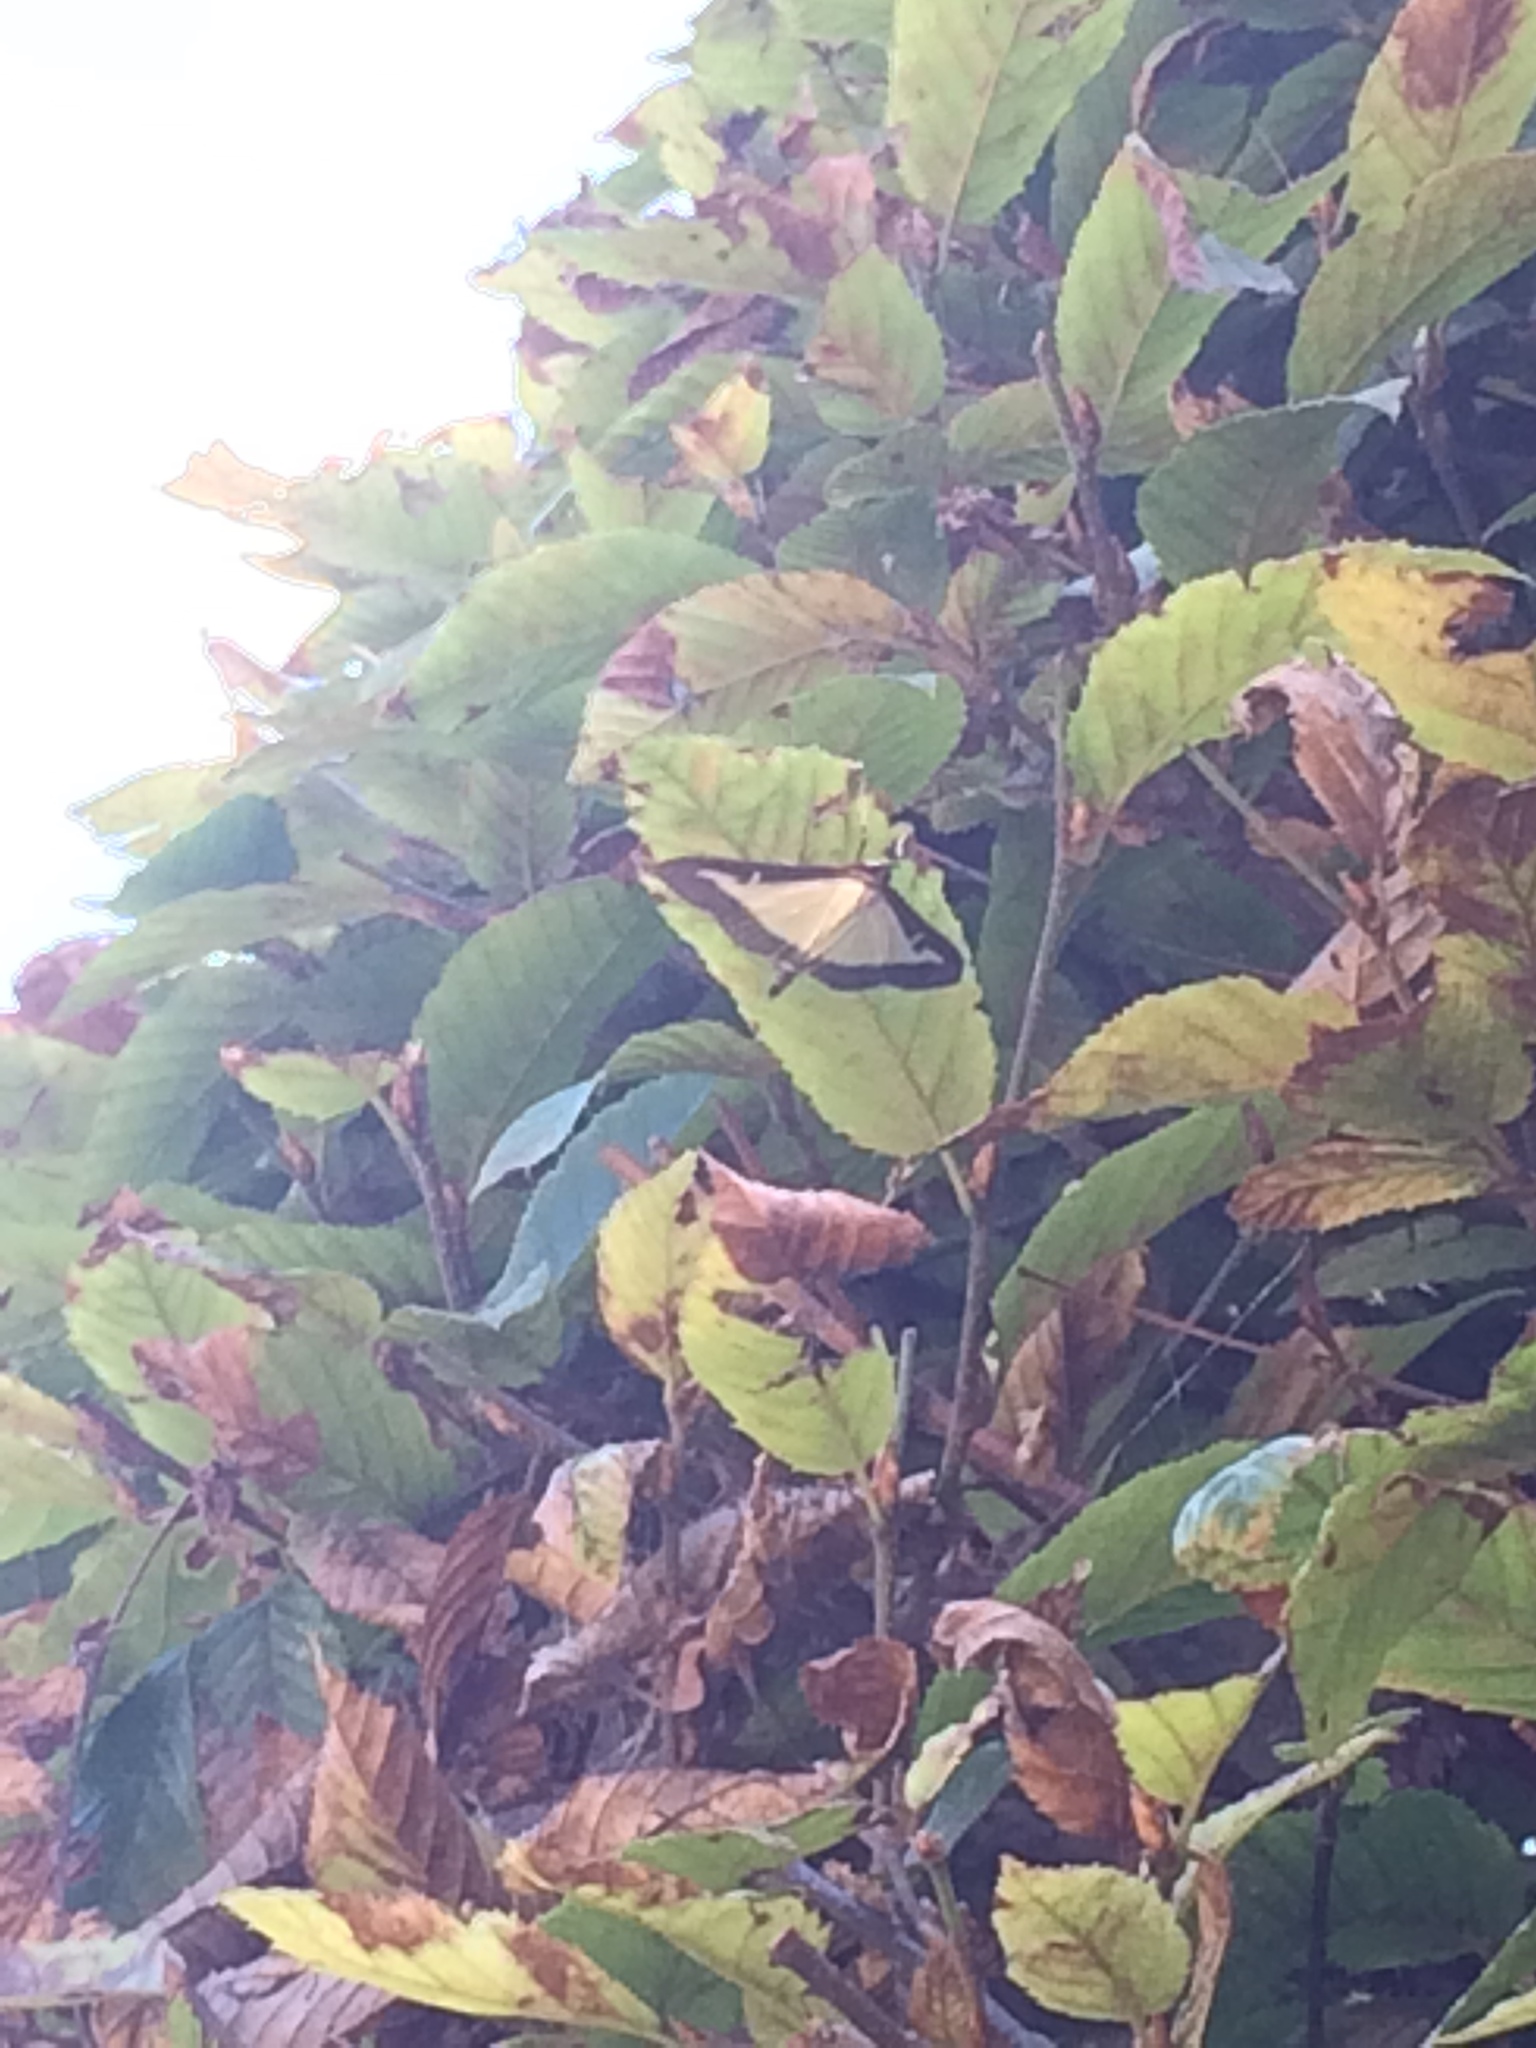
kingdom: Animalia
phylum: Arthropoda
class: Insecta
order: Lepidoptera
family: Crambidae
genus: Cydalima
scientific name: Cydalima perspectalis
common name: Box tree moth
